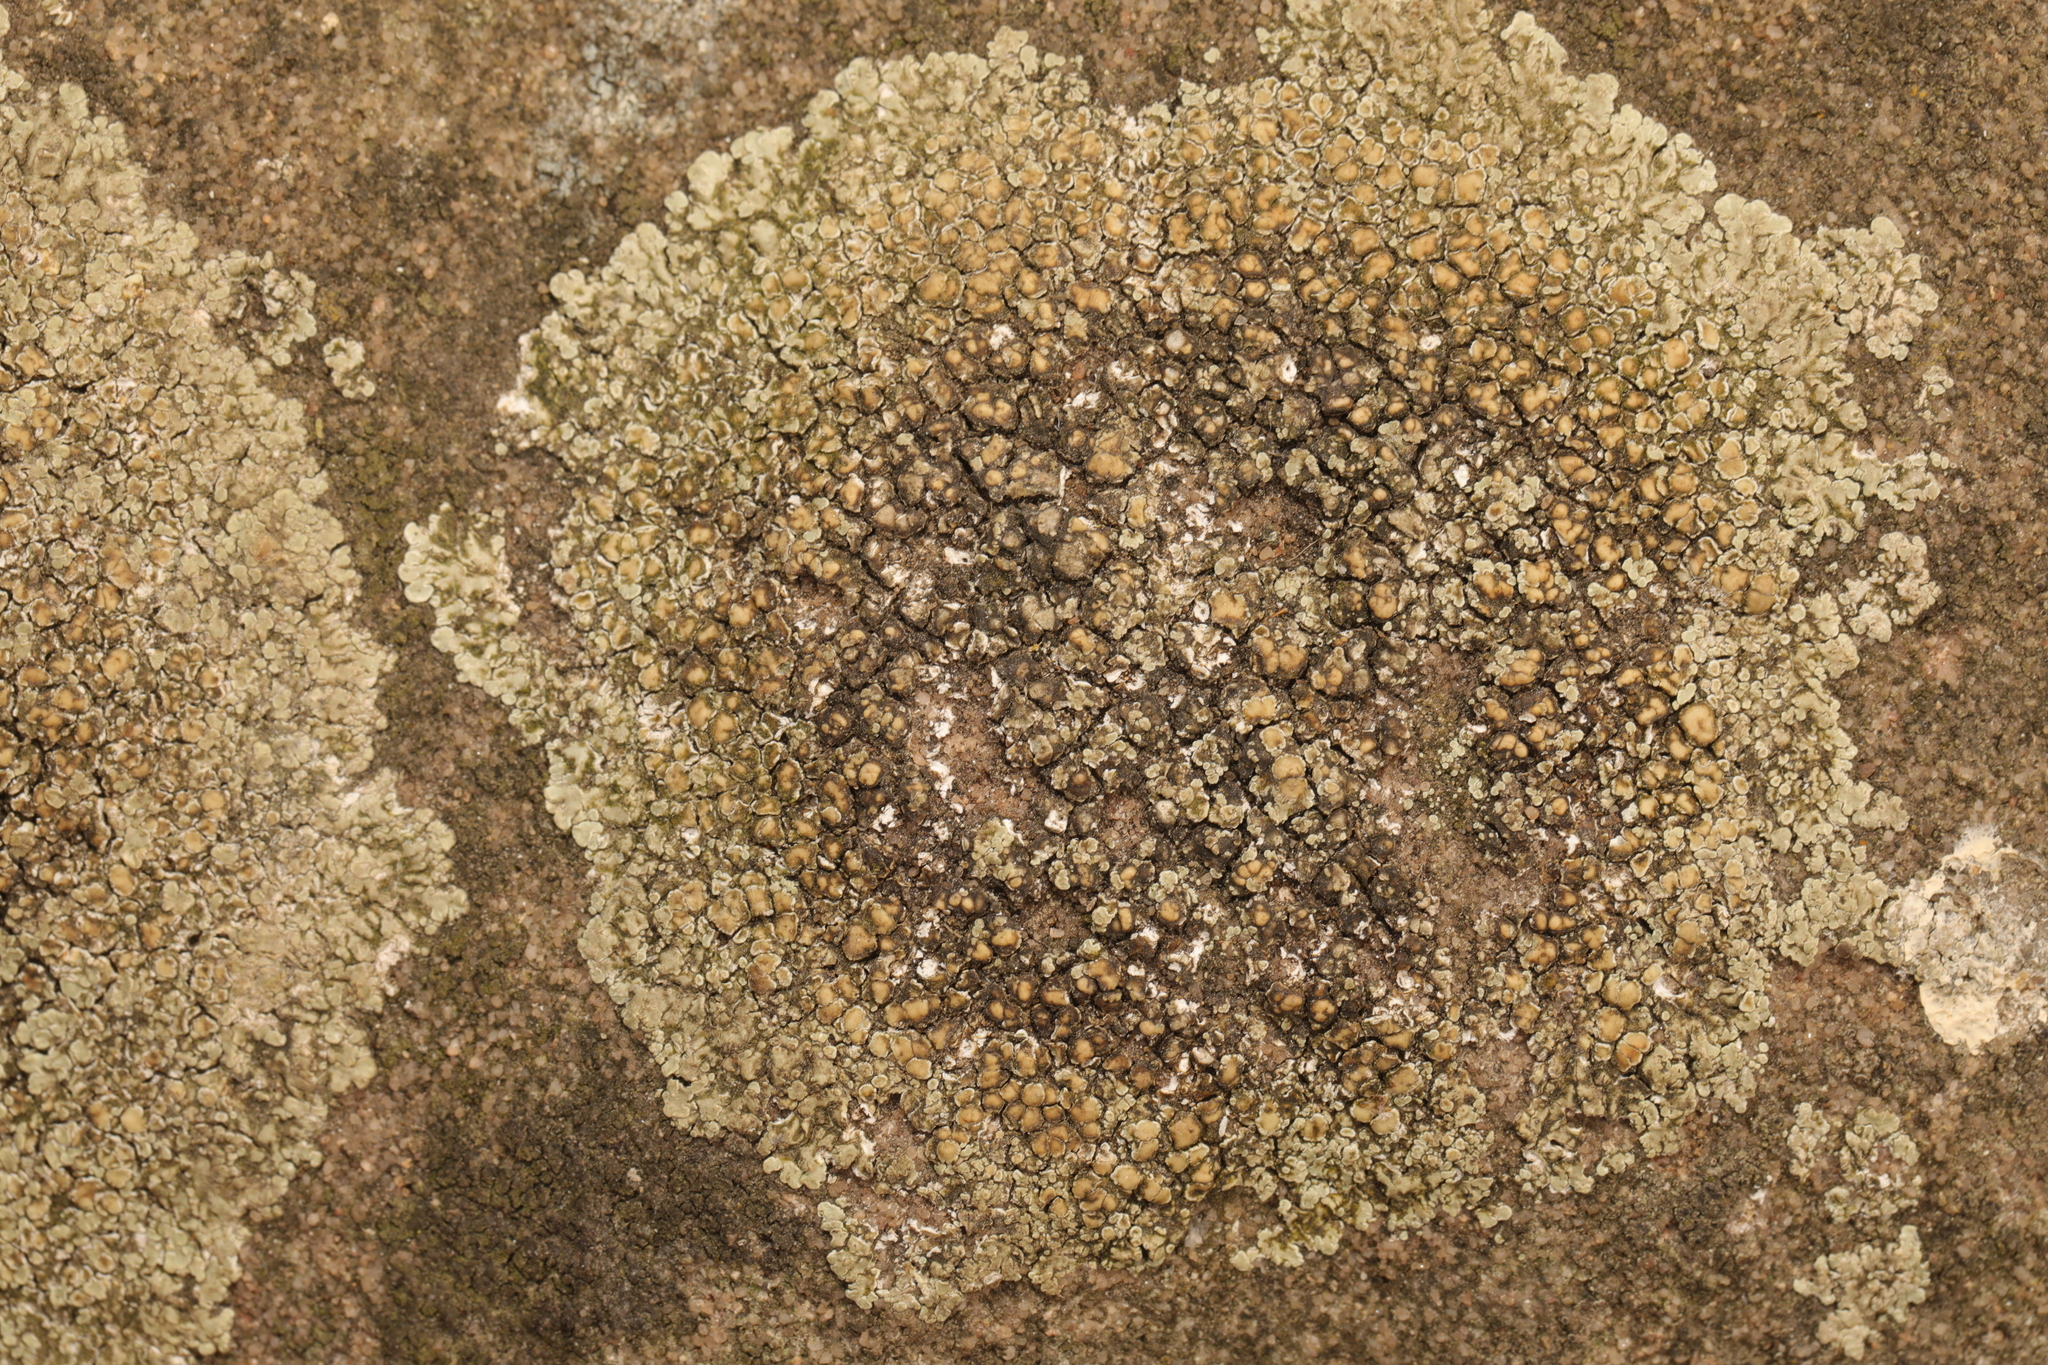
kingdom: Fungi
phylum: Ascomycota
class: Lecanoromycetes
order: Lecanorales
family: Lecanoraceae
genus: Protoparmeliopsis
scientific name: Protoparmeliopsis muralis
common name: Stonewall rim lichen
